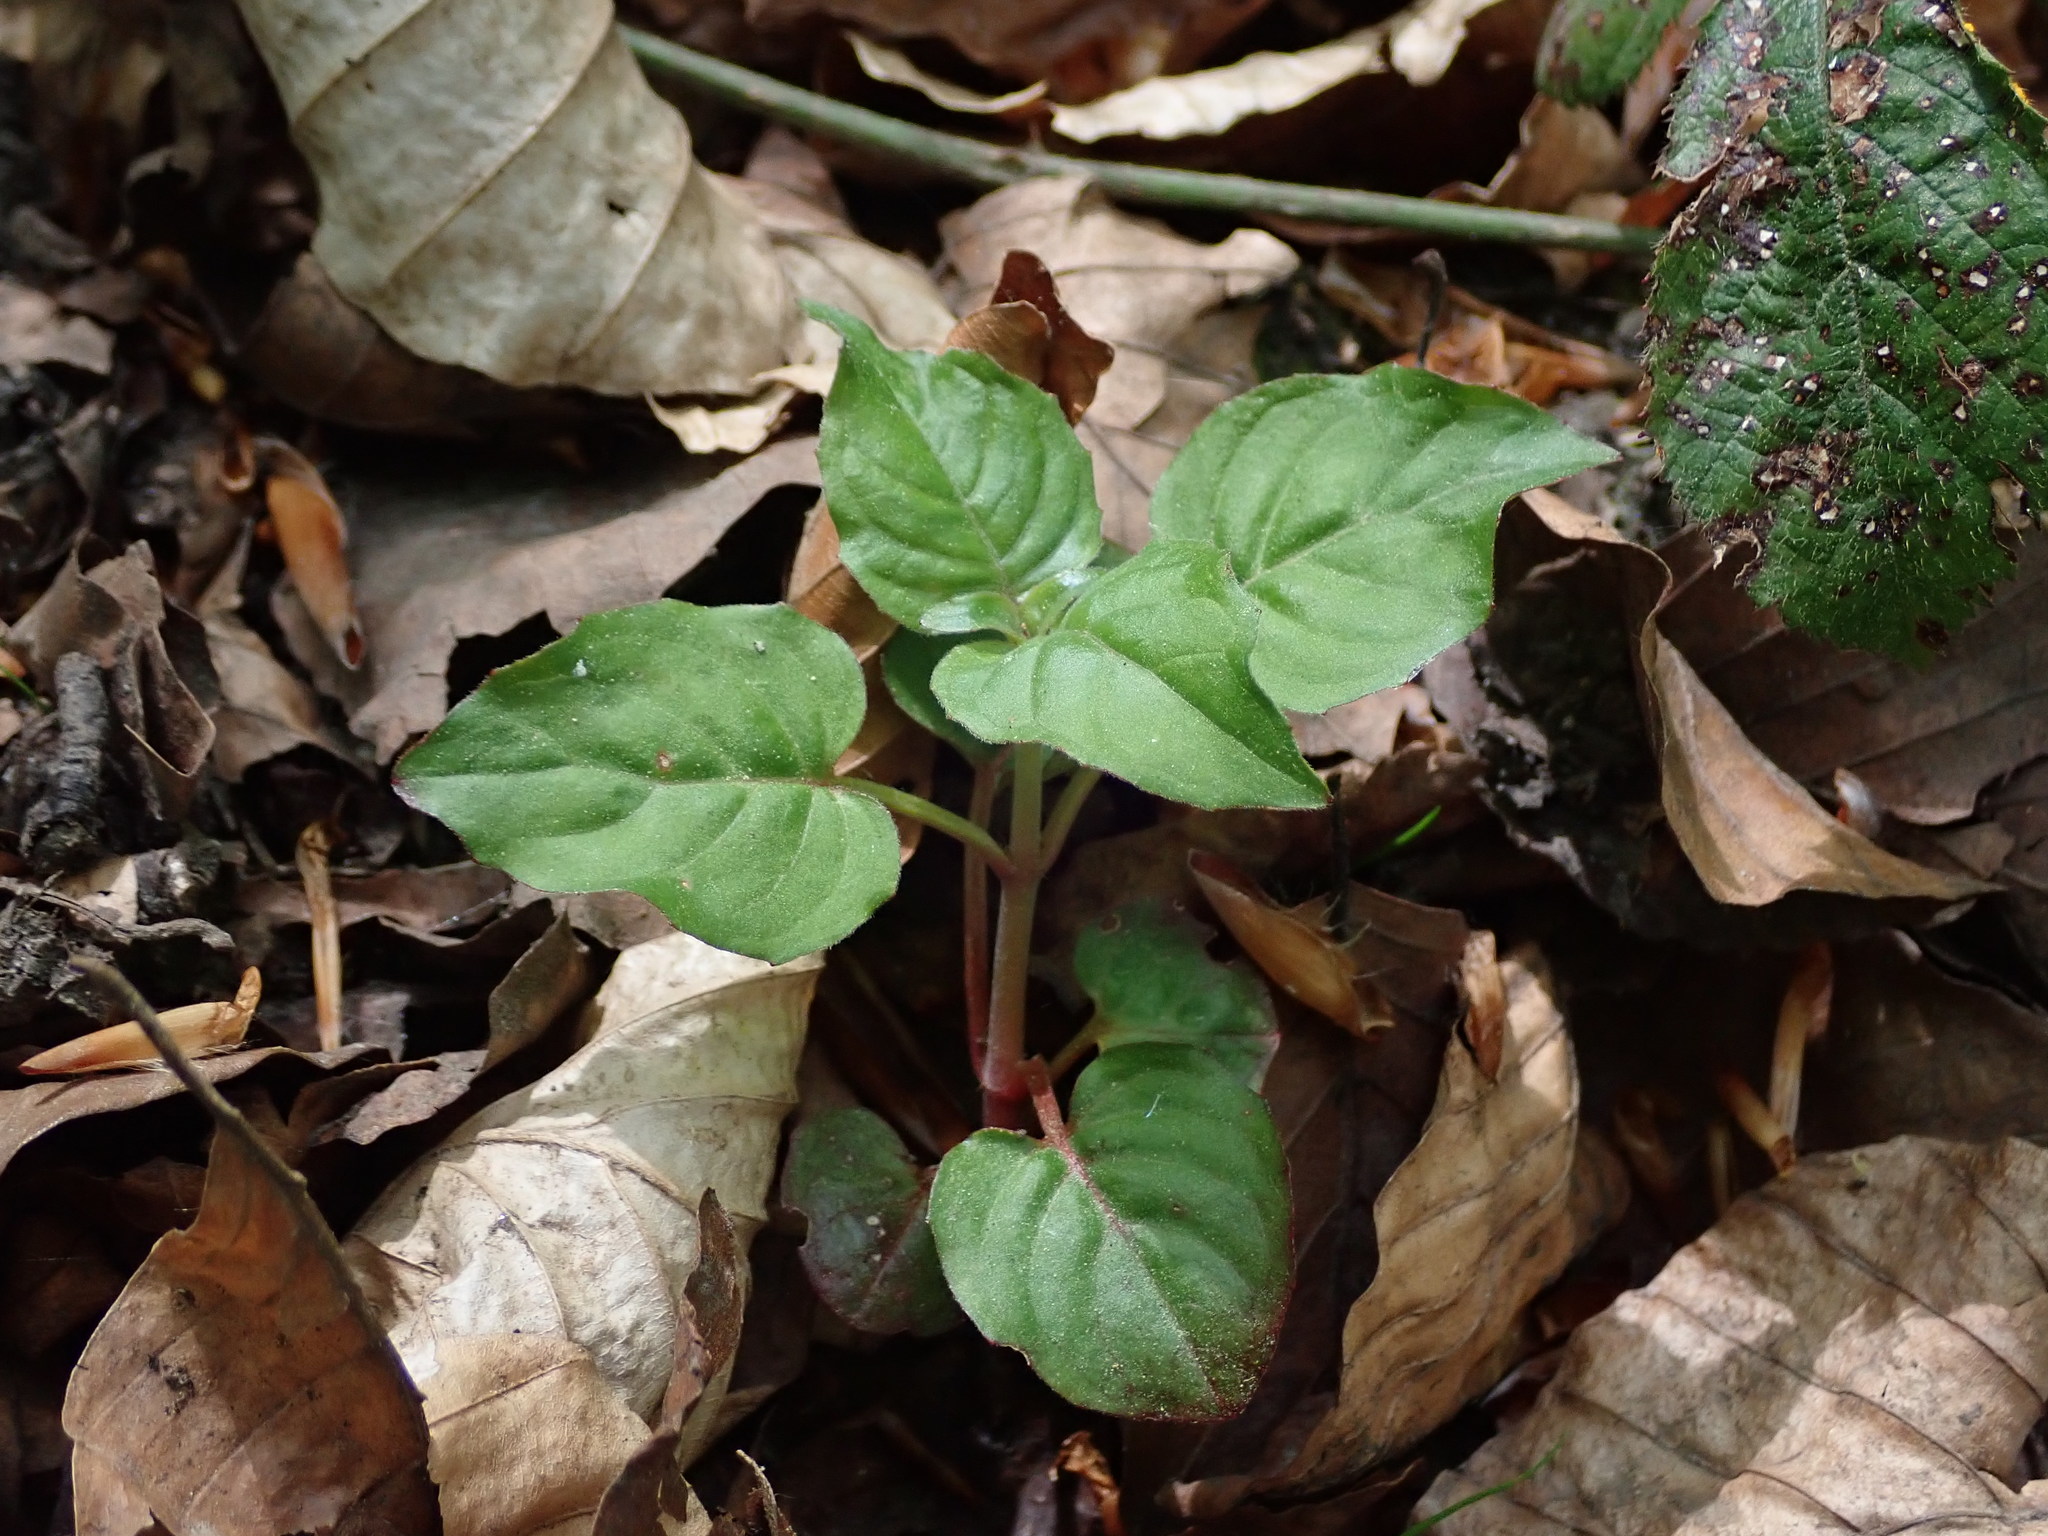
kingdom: Plantae
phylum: Tracheophyta
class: Magnoliopsida
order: Myrtales
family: Onagraceae
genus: Circaea
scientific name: Circaea lutetiana
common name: Enchanter's-nightshade
